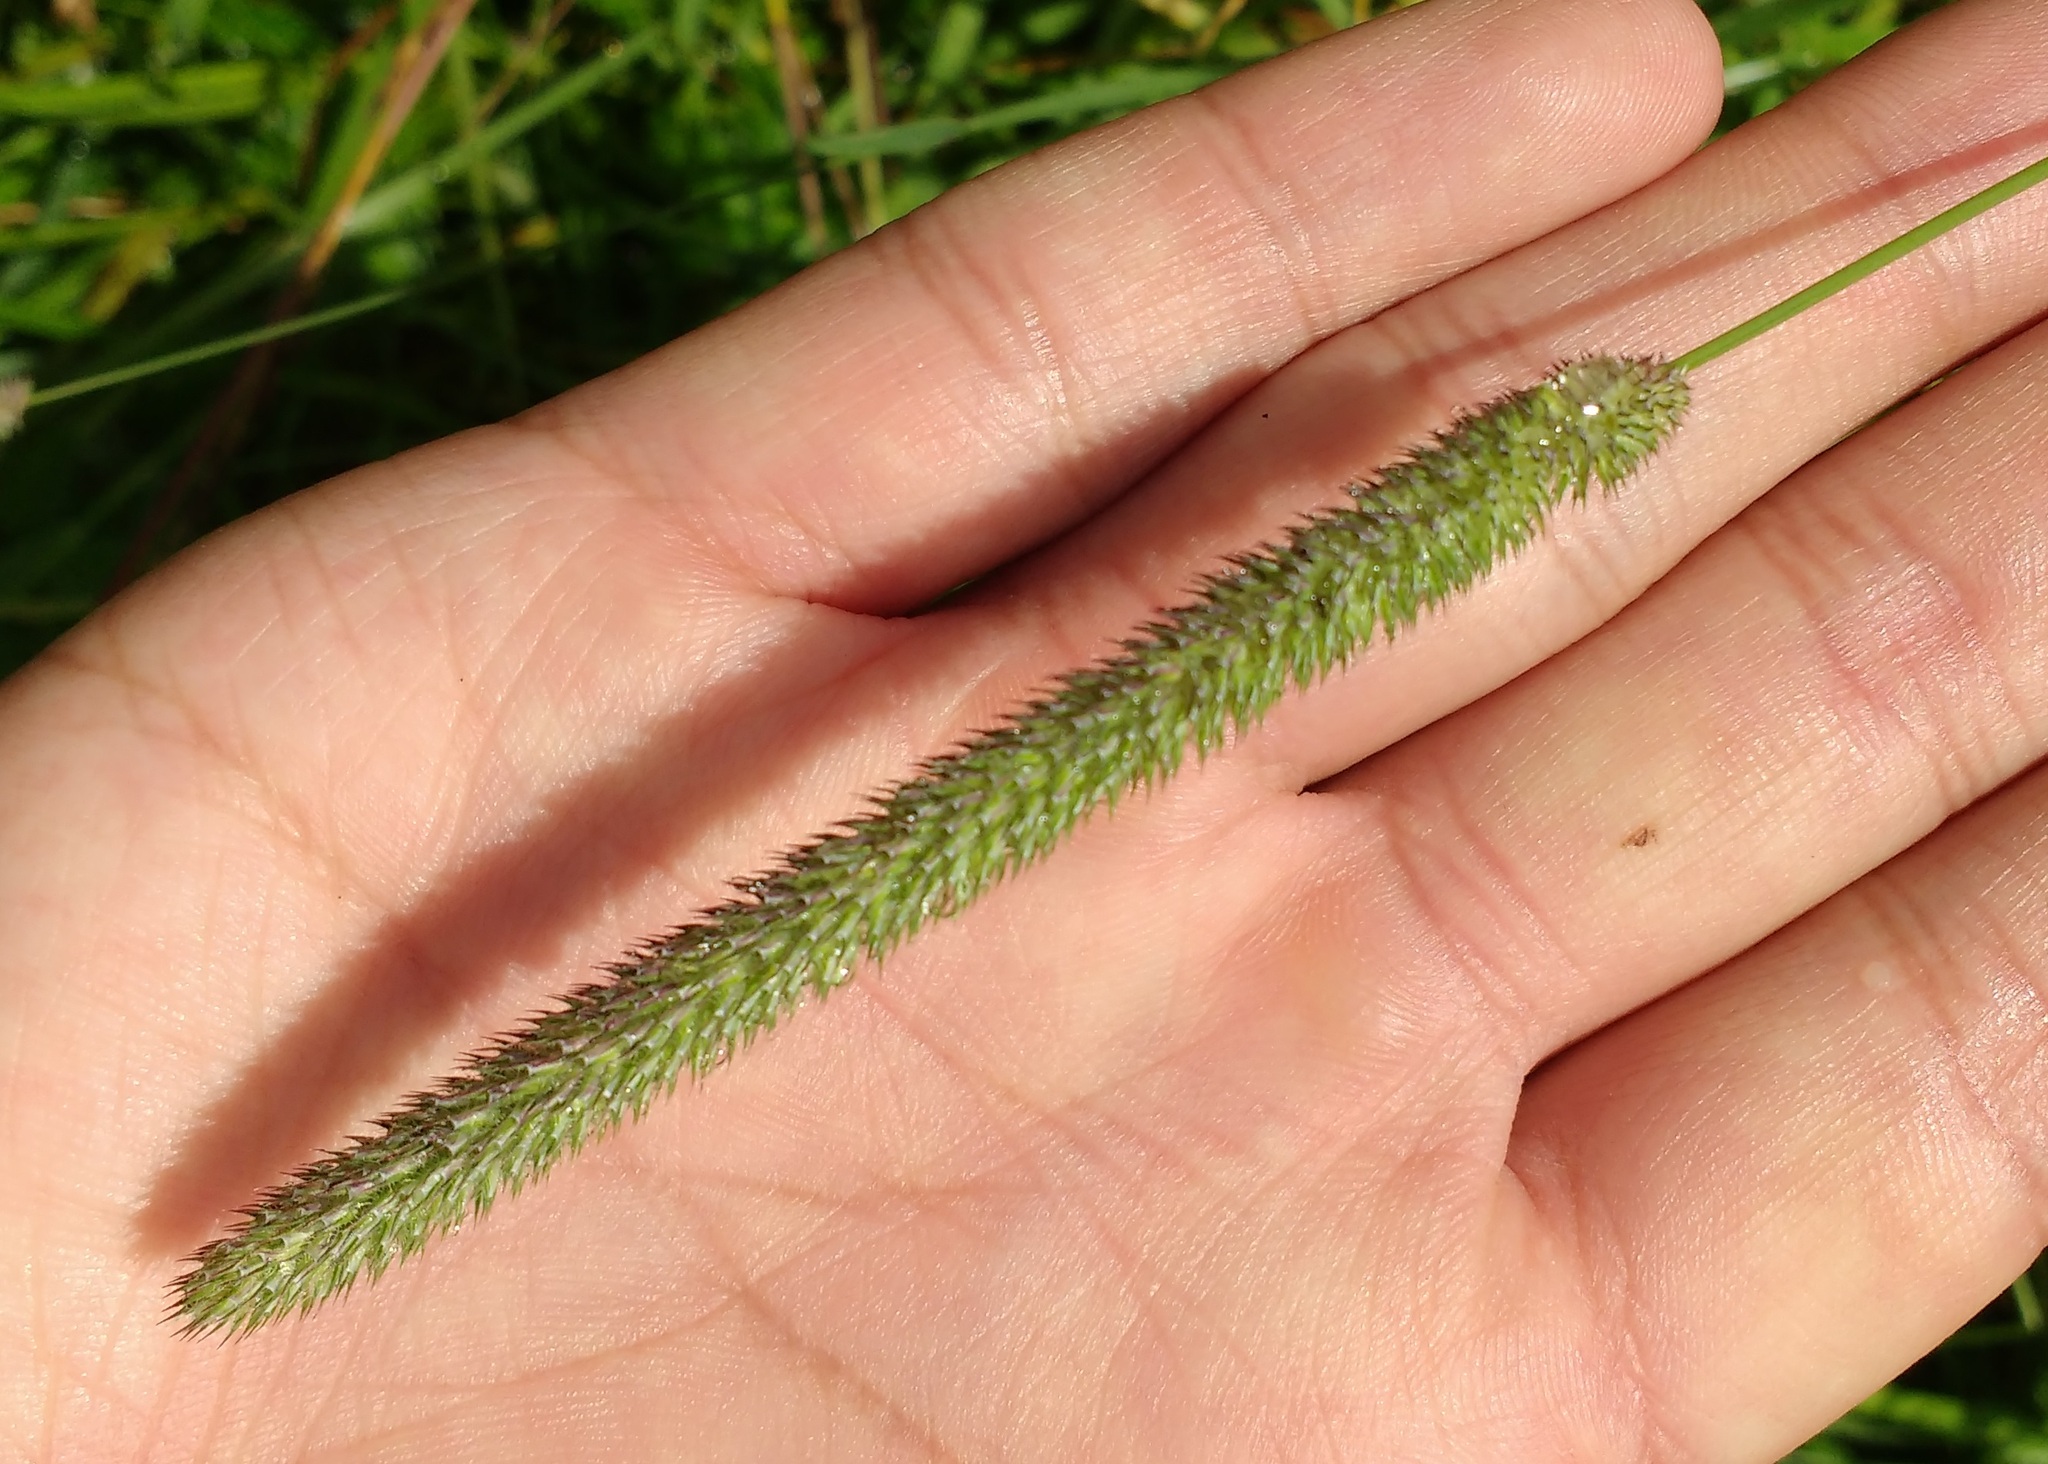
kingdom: Plantae
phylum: Tracheophyta
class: Liliopsida
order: Poales
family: Poaceae
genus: Phleum
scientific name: Phleum pratense
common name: Timothy grass
